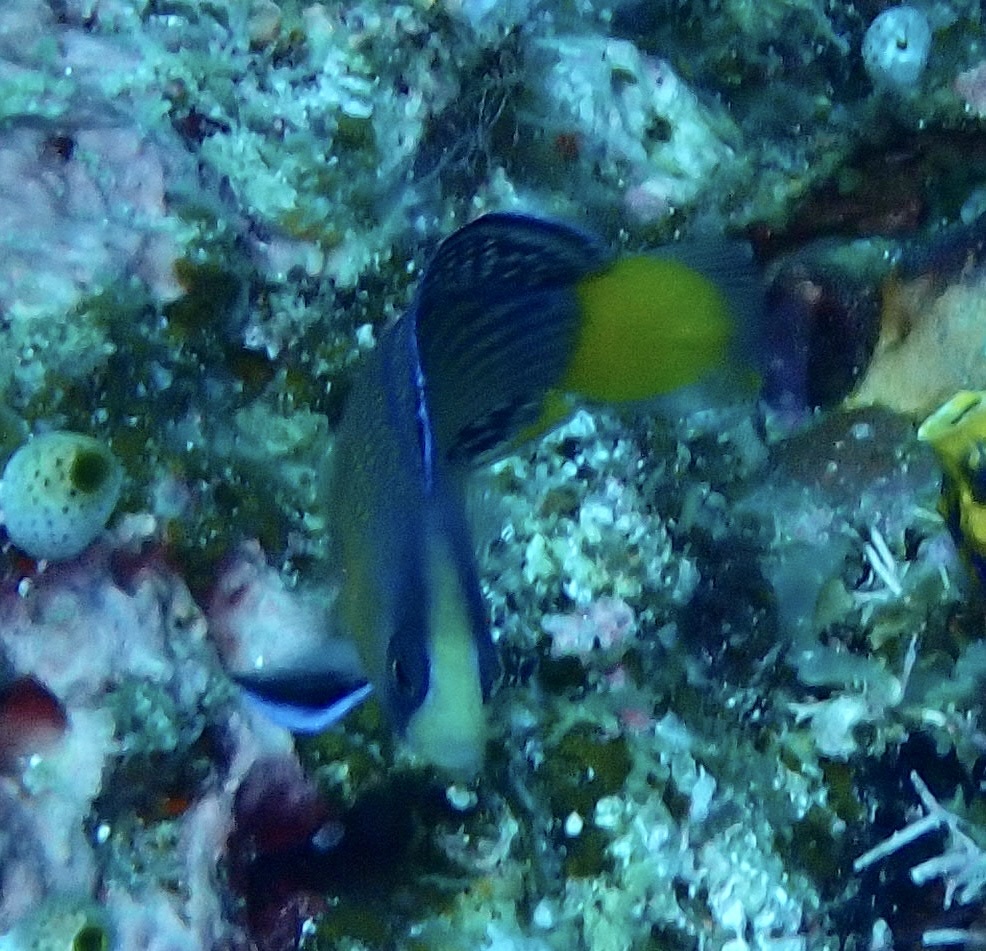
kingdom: Animalia
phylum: Chordata
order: Perciformes
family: Pseudochromidae
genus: Manonichthys
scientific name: Manonichthys splendens
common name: Splendid dottyback
